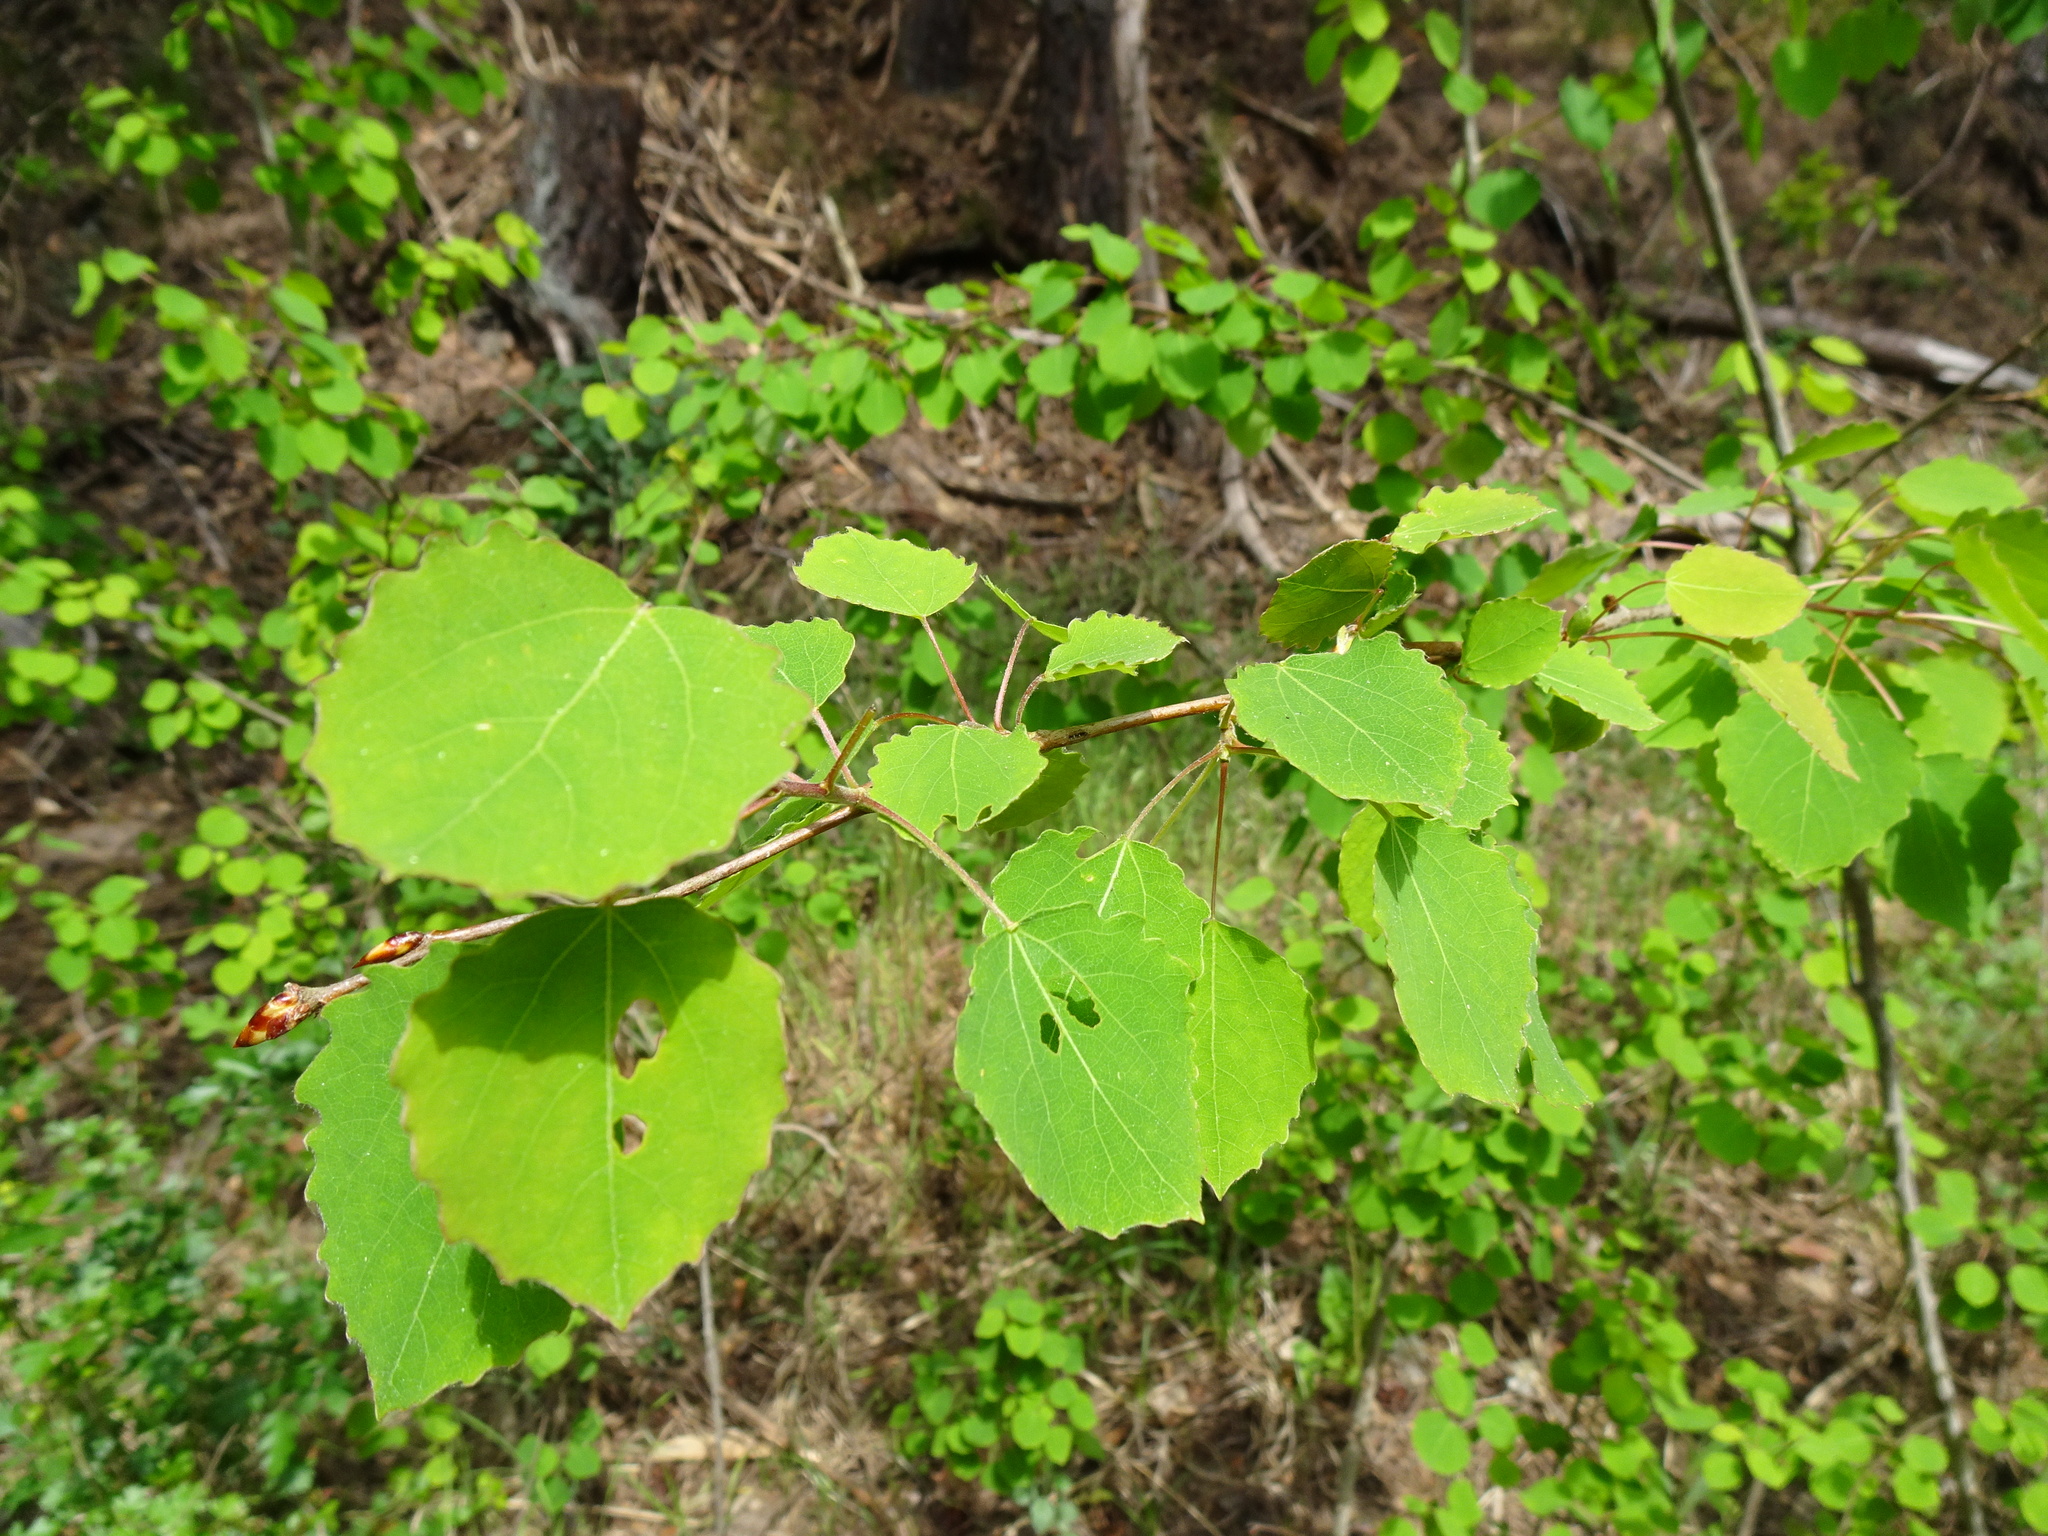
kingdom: Plantae
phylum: Tracheophyta
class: Magnoliopsida
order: Malpighiales
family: Salicaceae
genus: Populus
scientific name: Populus tremula
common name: European aspen
